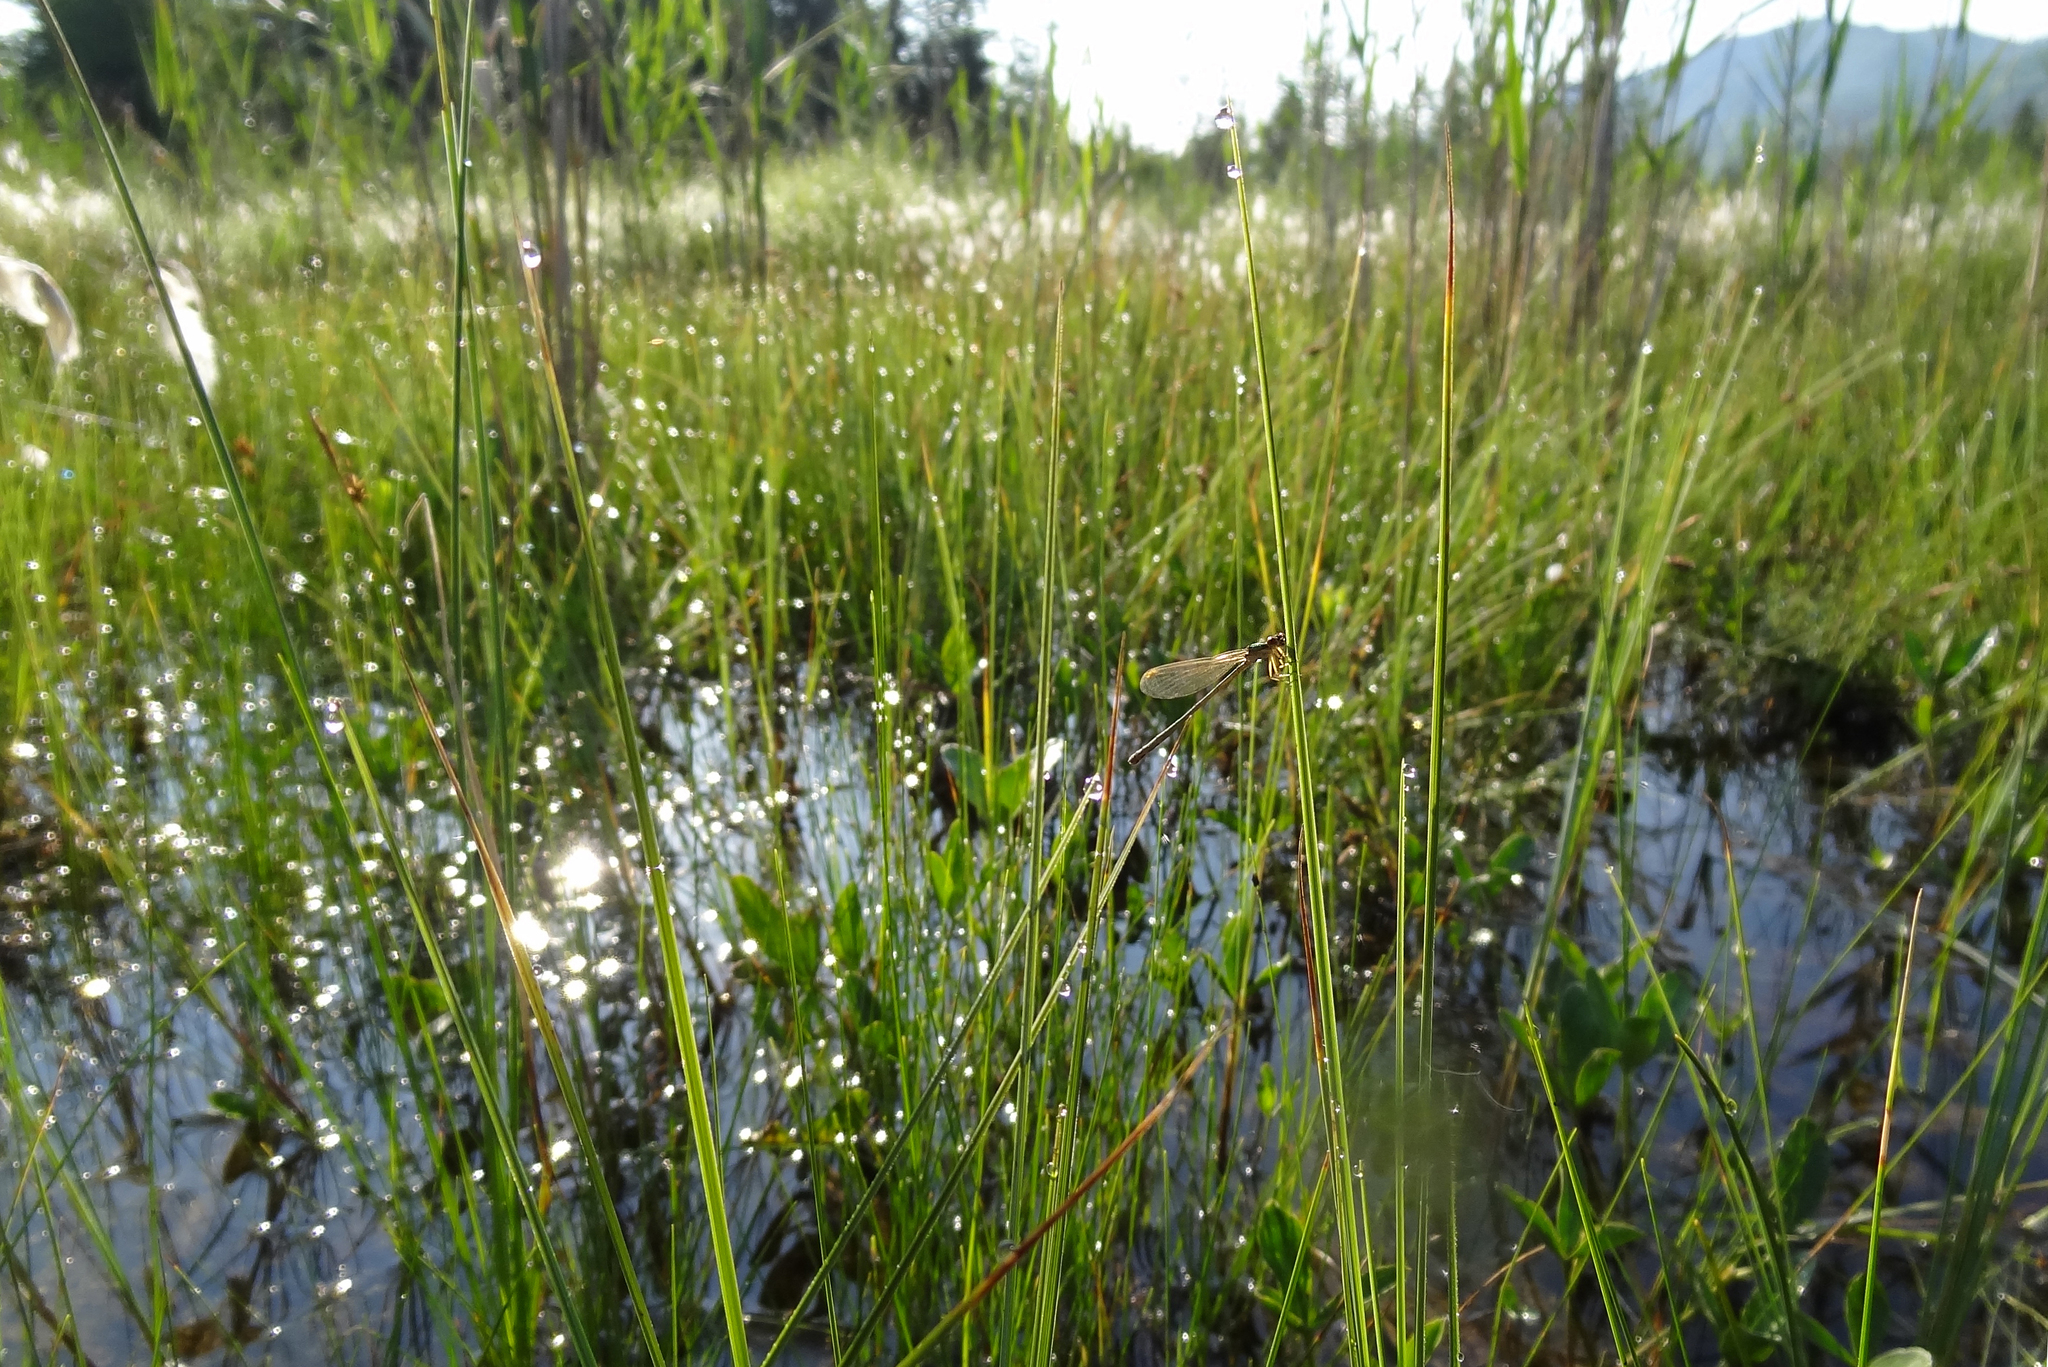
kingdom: Animalia
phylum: Arthropoda
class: Insecta
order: Odonata
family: Coenagrionidae
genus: Nehalennia
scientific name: Nehalennia speciosa
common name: Sedgling
